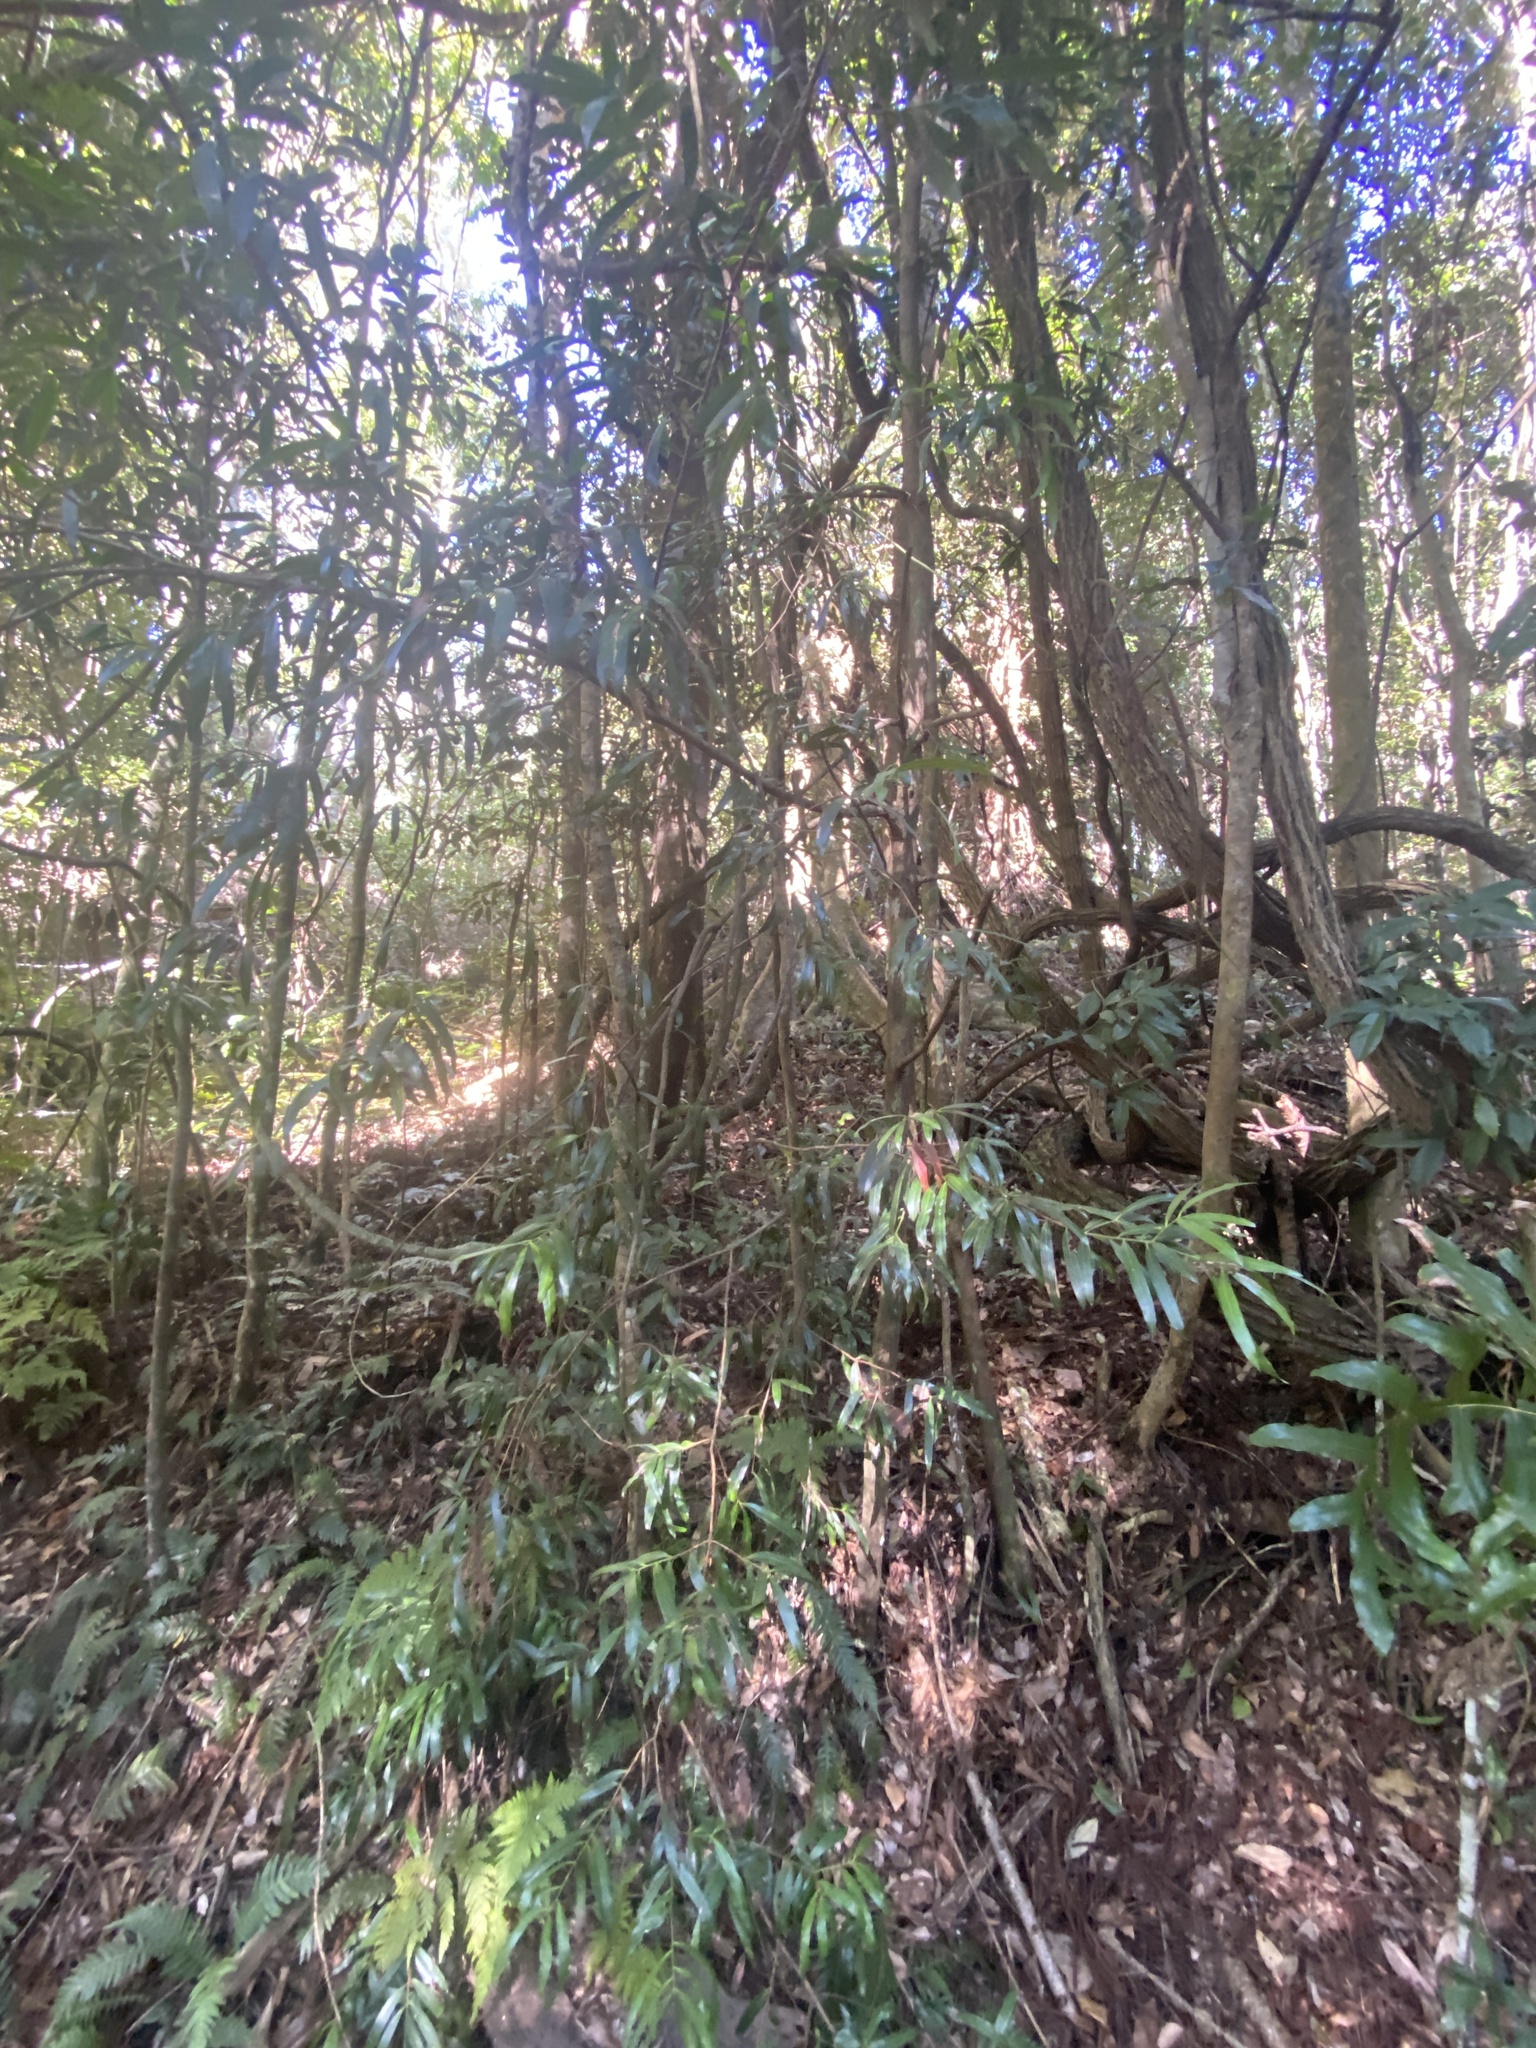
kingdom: Plantae
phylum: Tracheophyta
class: Pinopsida
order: Pinales
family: Podocarpaceae
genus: Podocarpus
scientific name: Podocarpus elatus
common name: Plum pine
